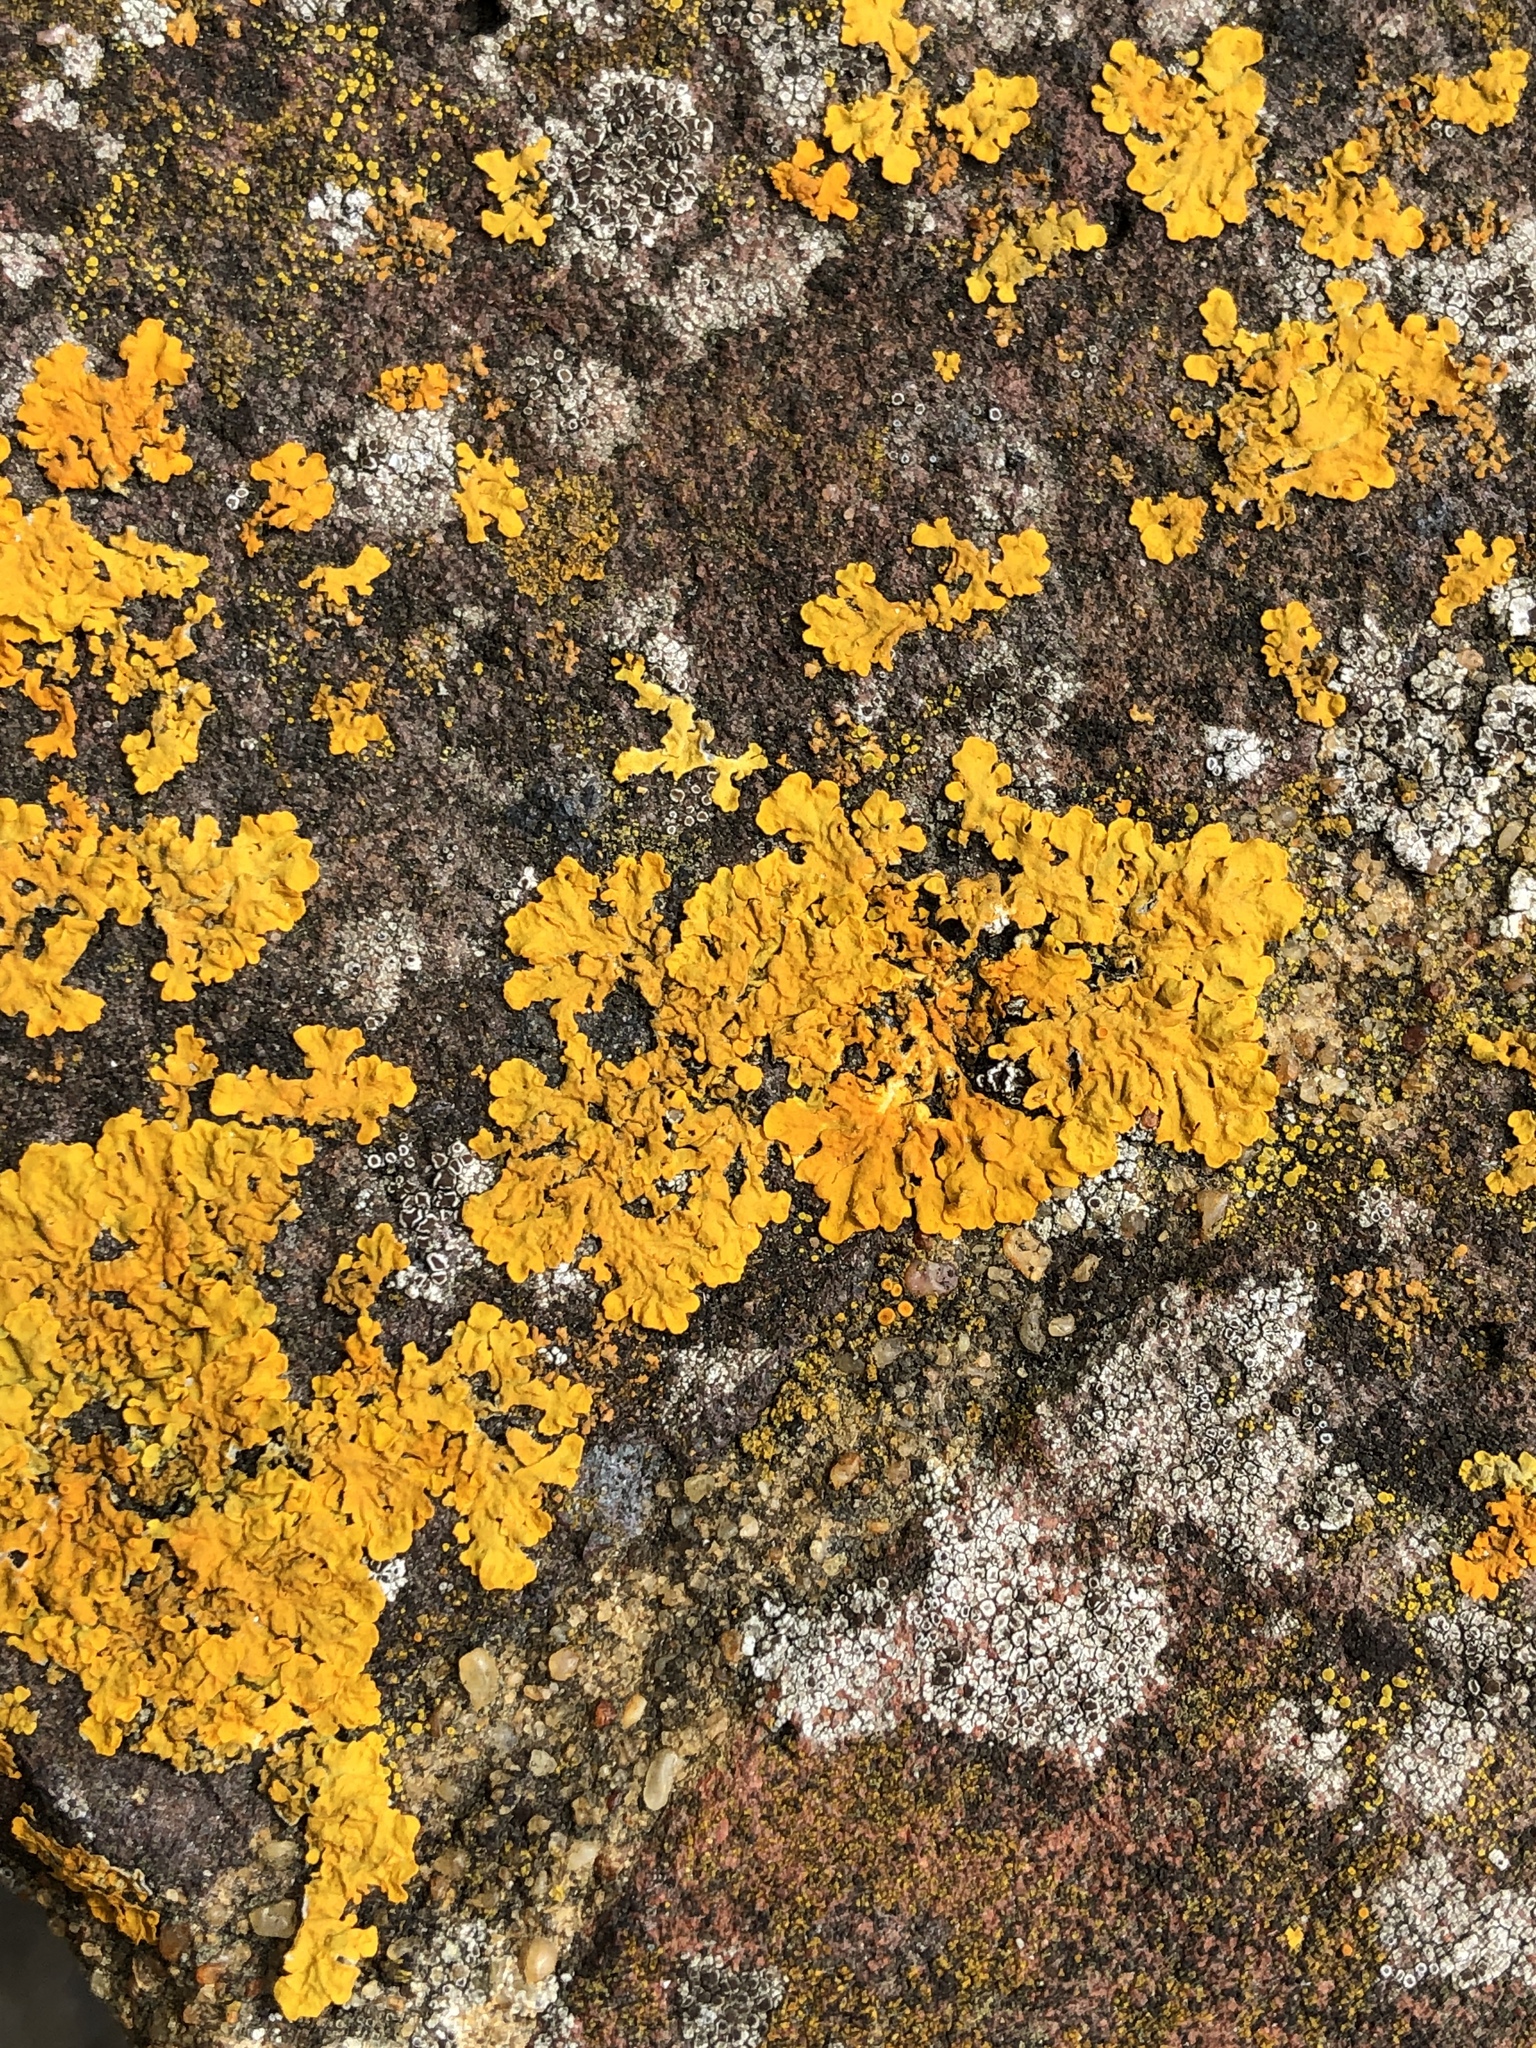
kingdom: Fungi
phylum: Ascomycota
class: Lecanoromycetes
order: Teloschistales
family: Teloschistaceae
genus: Xanthoria
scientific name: Xanthoria parietina
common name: Common orange lichen
